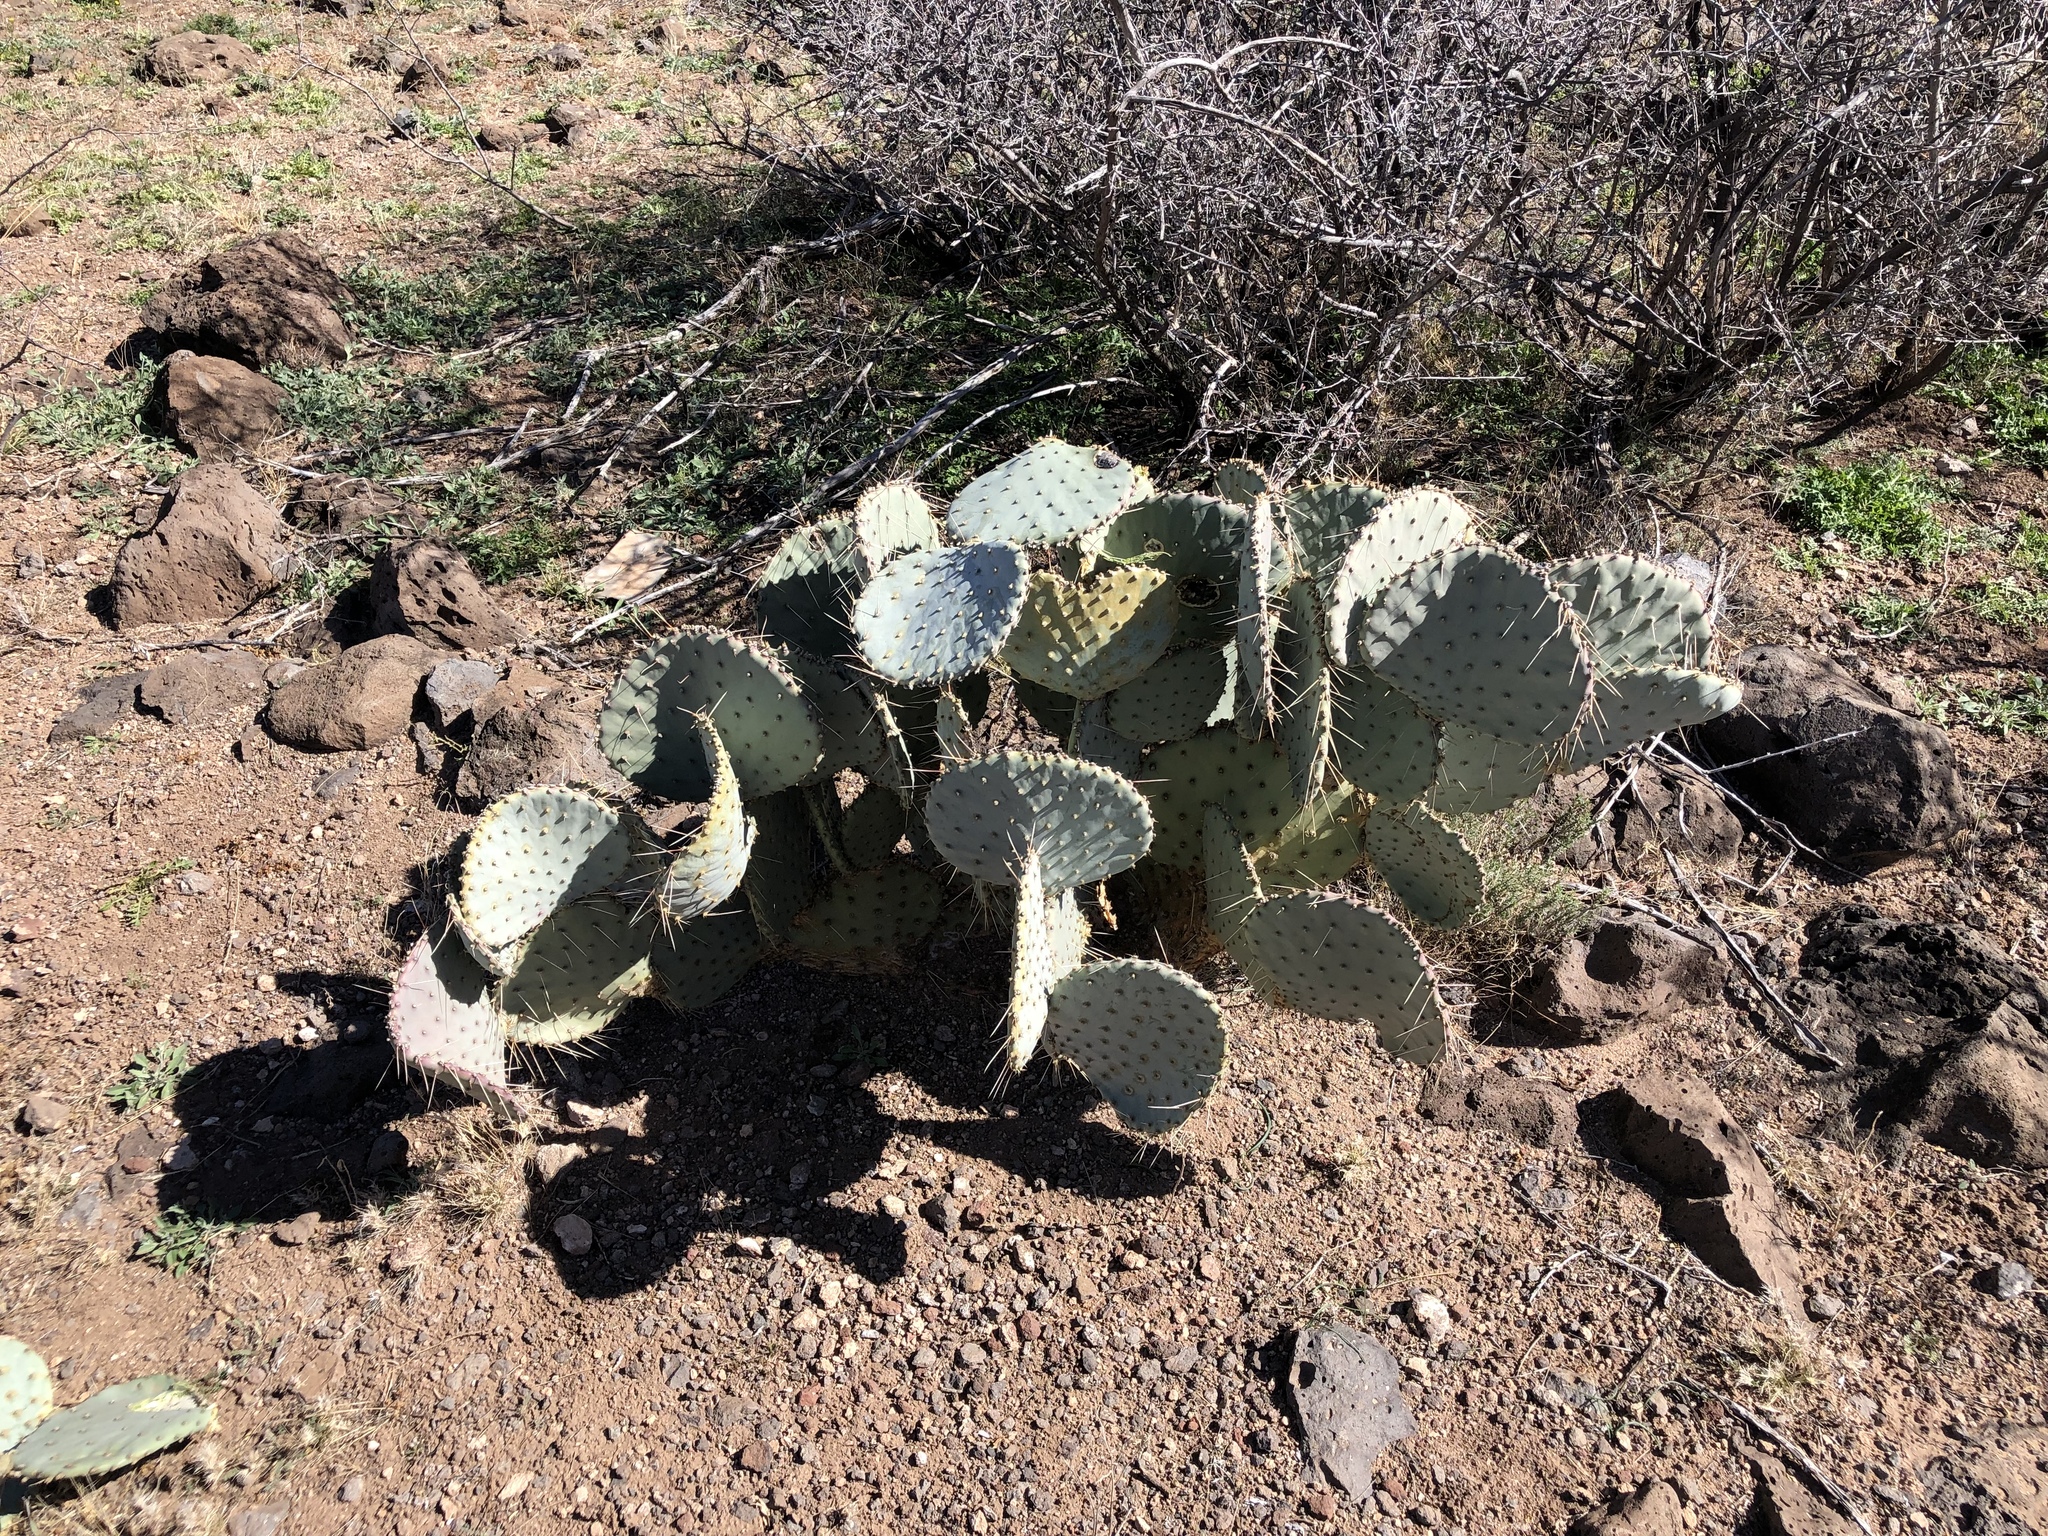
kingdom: Plantae
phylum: Tracheophyta
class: Magnoliopsida
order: Caryophyllales
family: Cactaceae
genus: Opuntia
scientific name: Opuntia gosseliniana
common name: Violet prickly-pear
